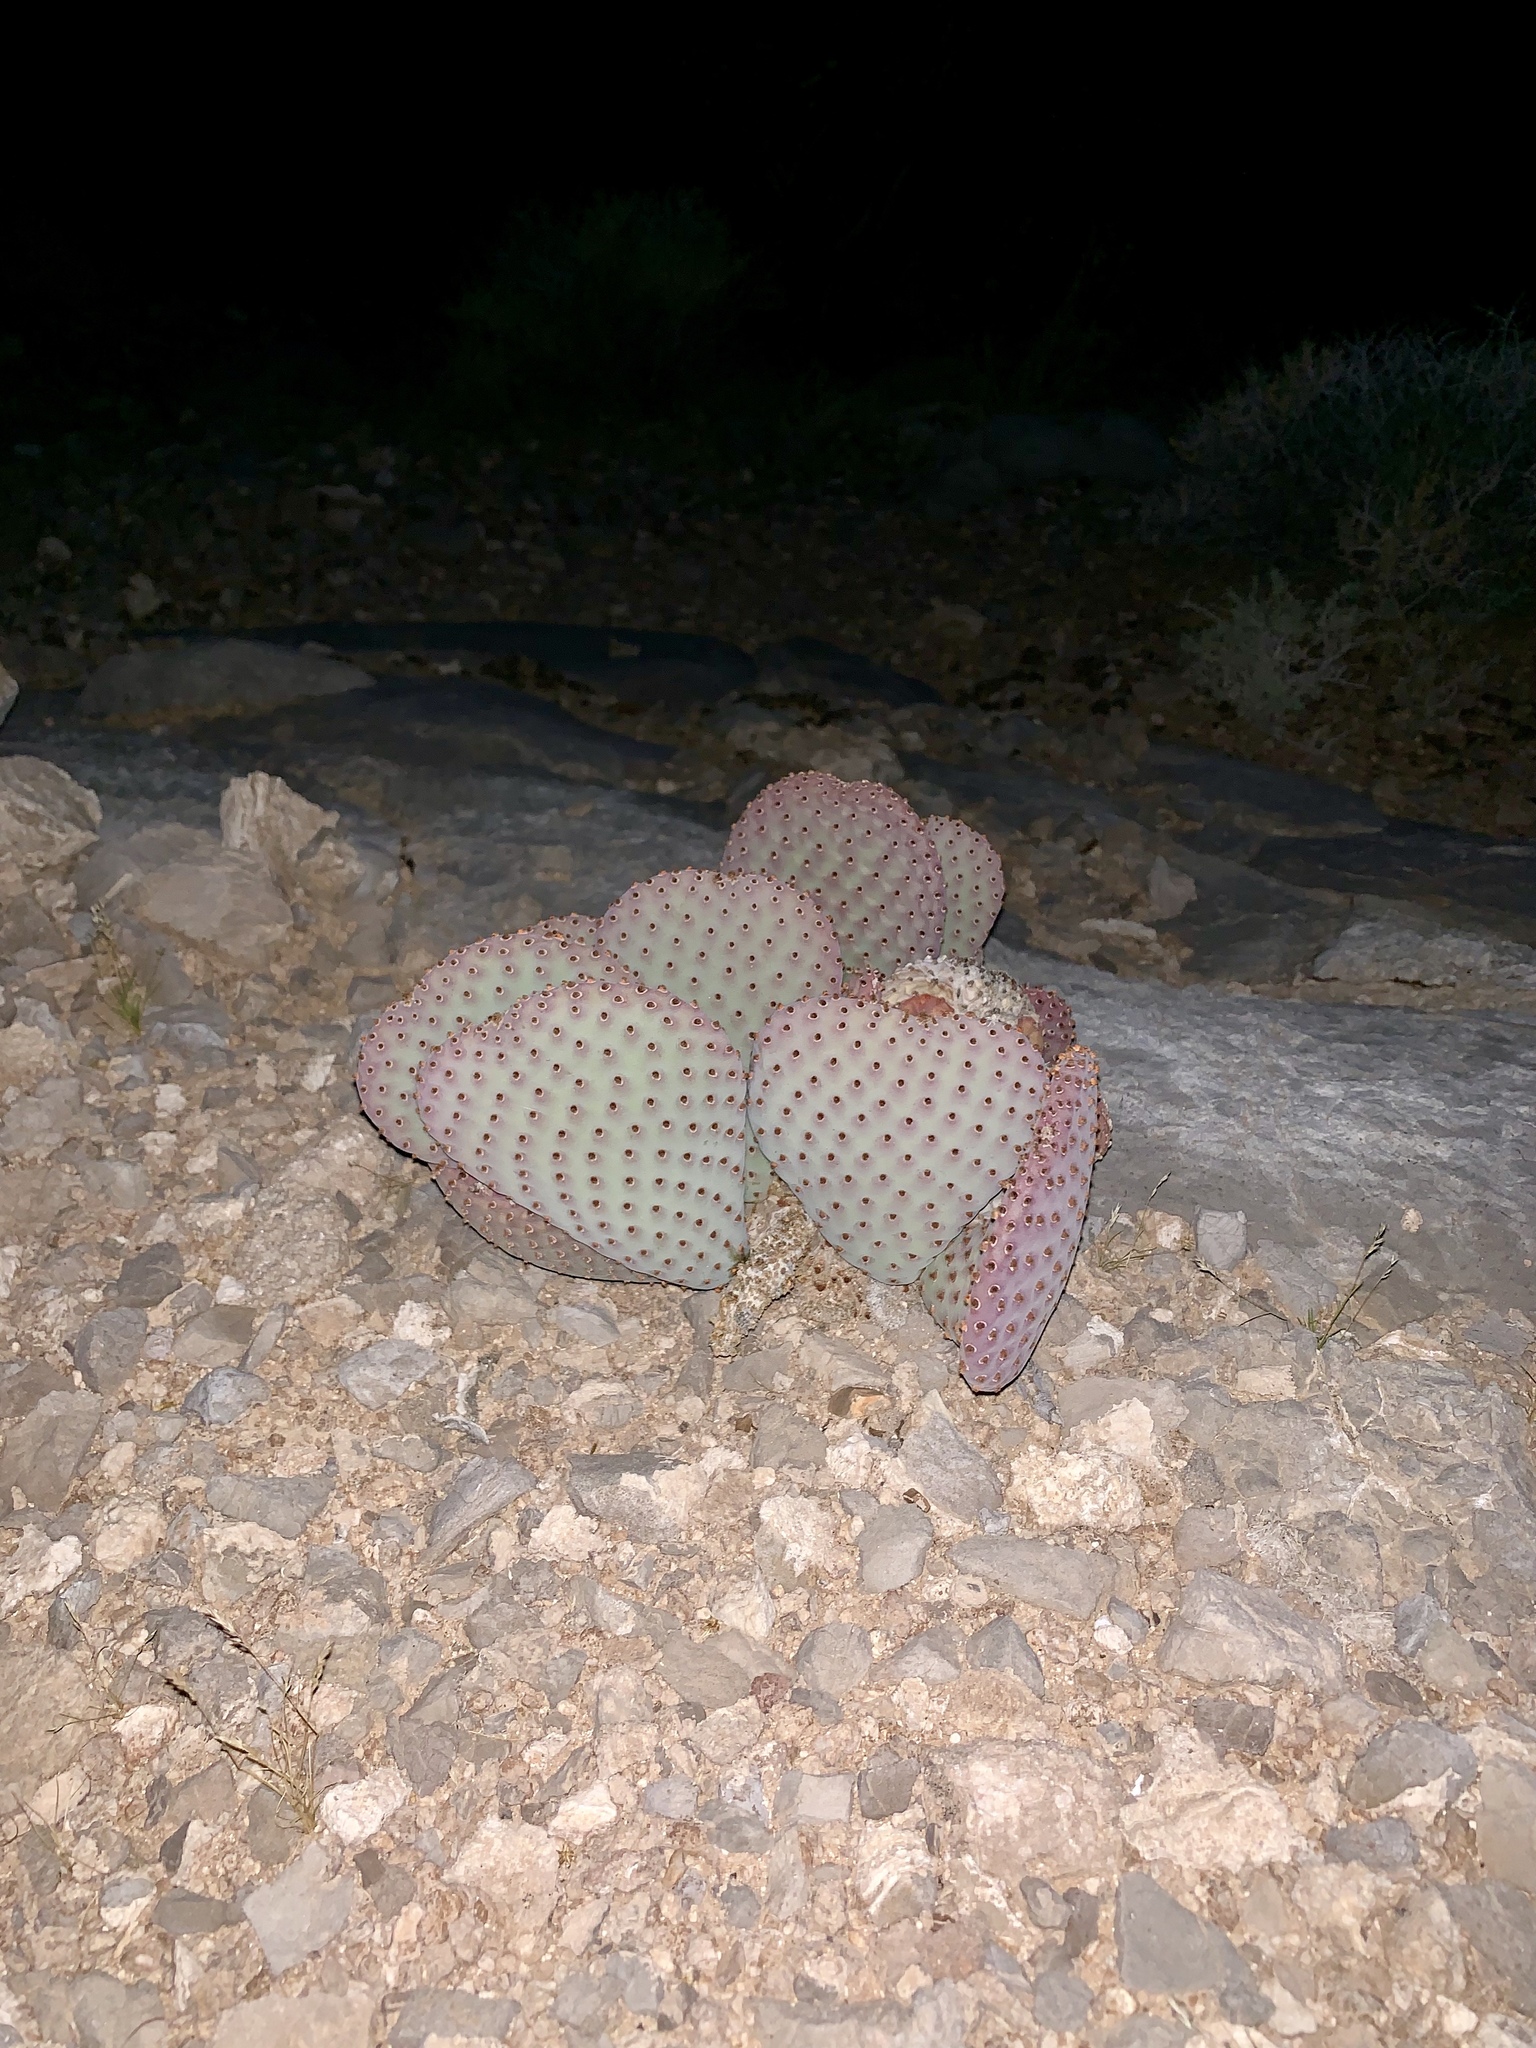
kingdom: Plantae
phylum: Tracheophyta
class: Magnoliopsida
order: Caryophyllales
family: Cactaceae
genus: Opuntia
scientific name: Opuntia basilaris
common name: Beavertail prickly-pear
